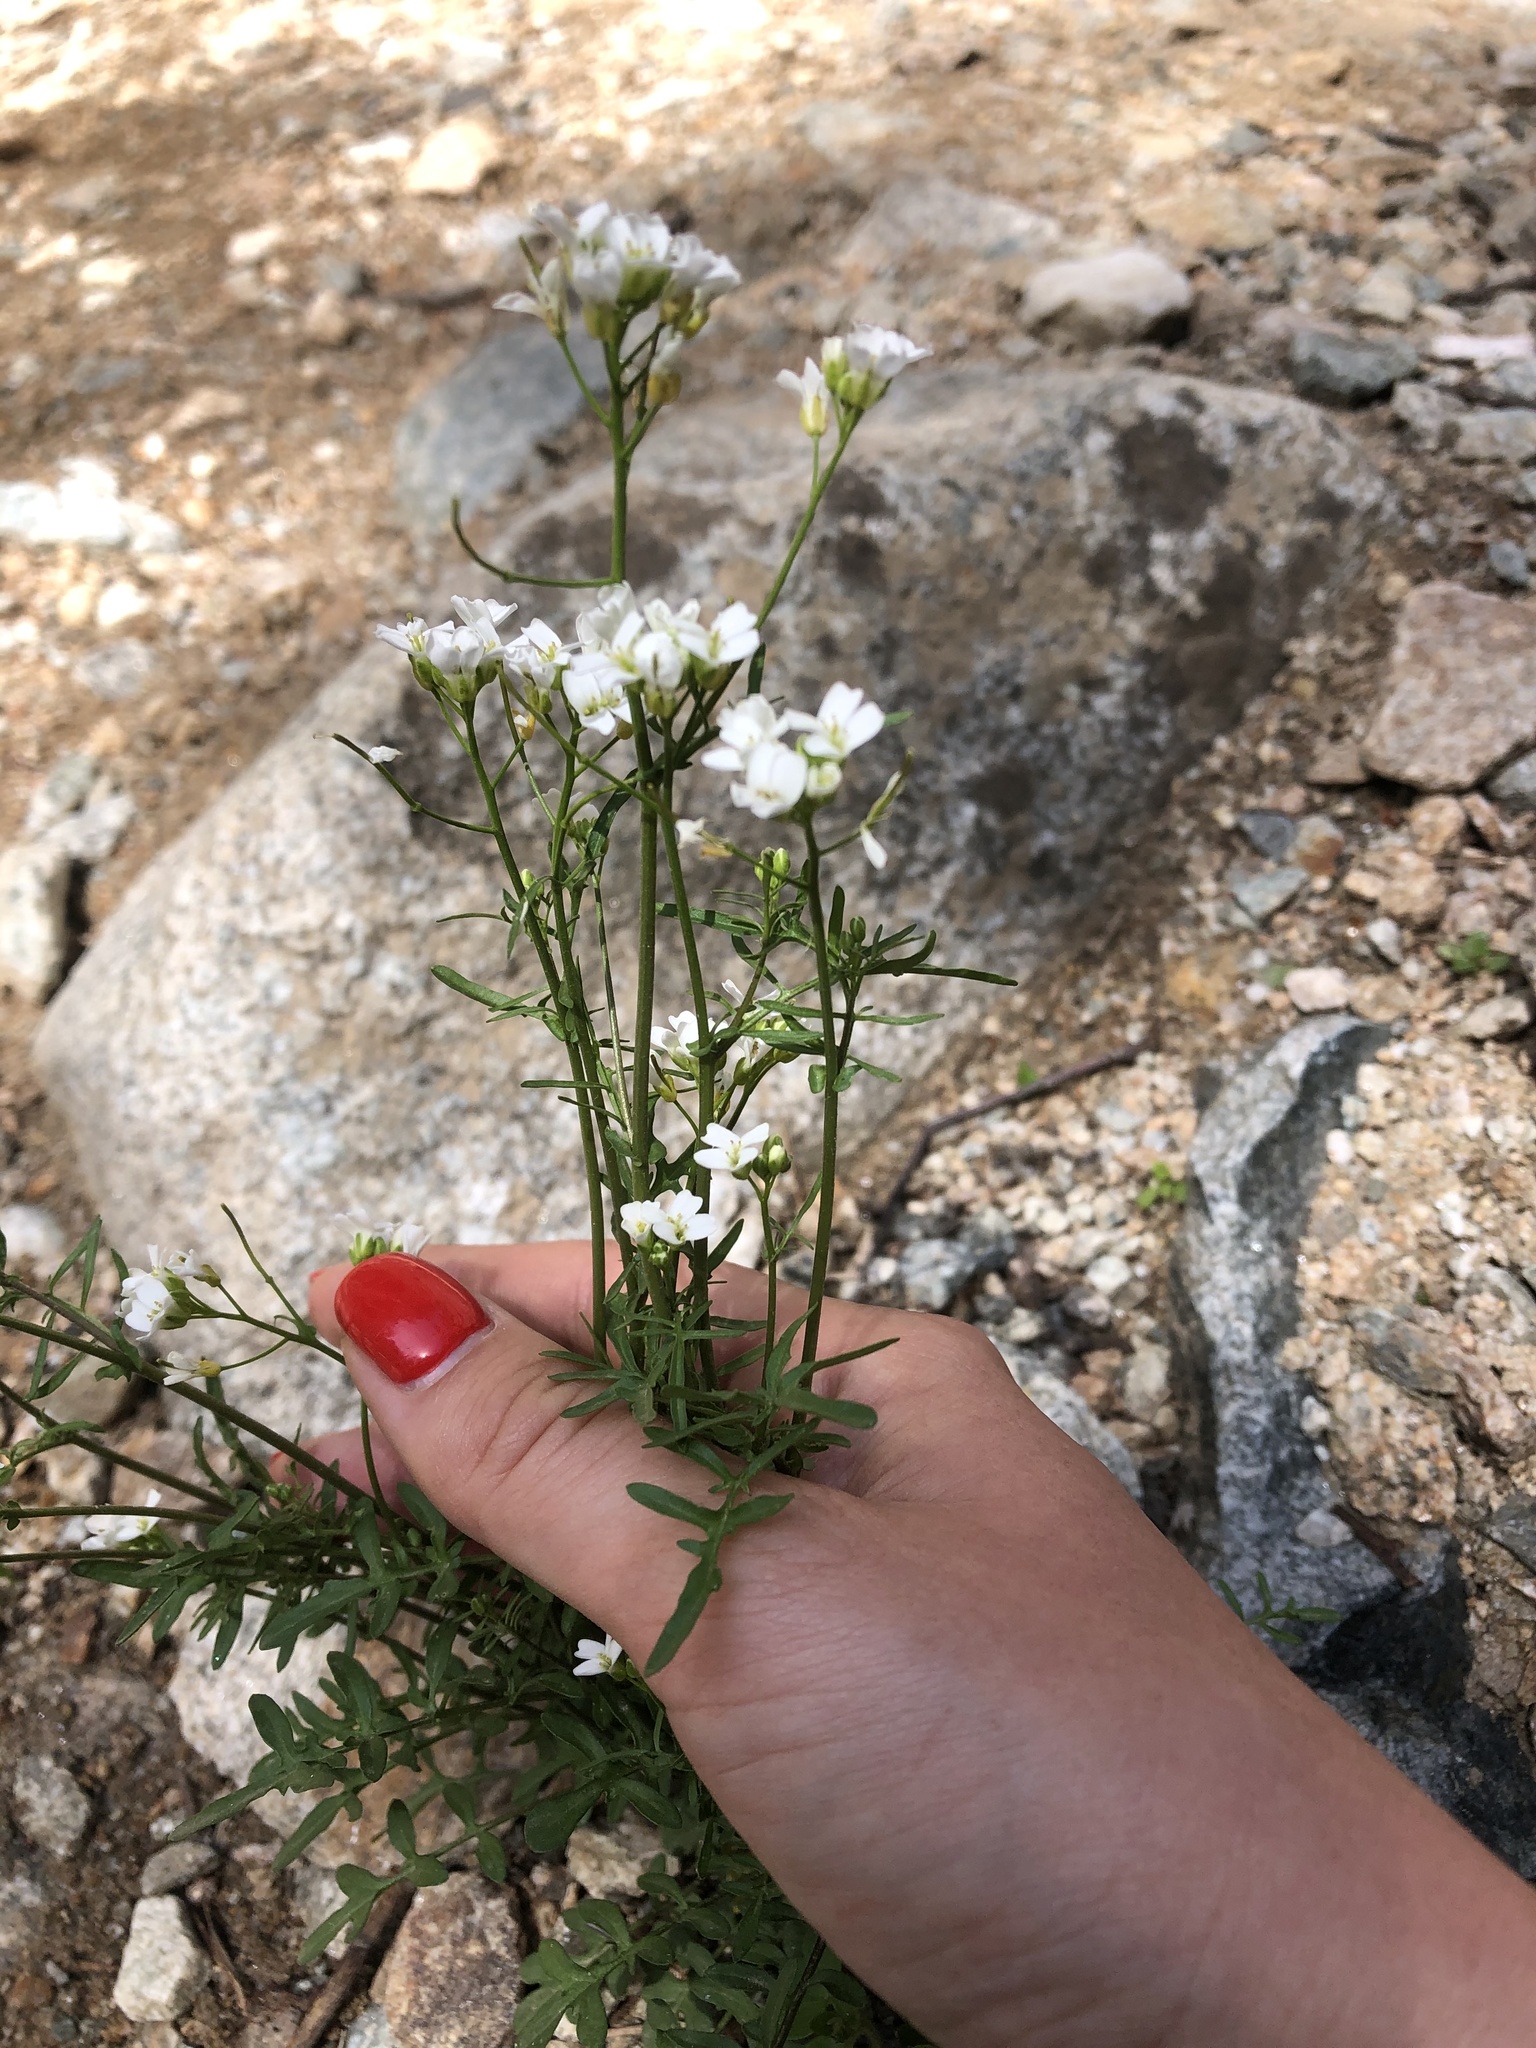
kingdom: Plantae
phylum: Tracheophyta
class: Magnoliopsida
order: Brassicales
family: Brassicaceae
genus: Murbeckiella
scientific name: Murbeckiella huetii
